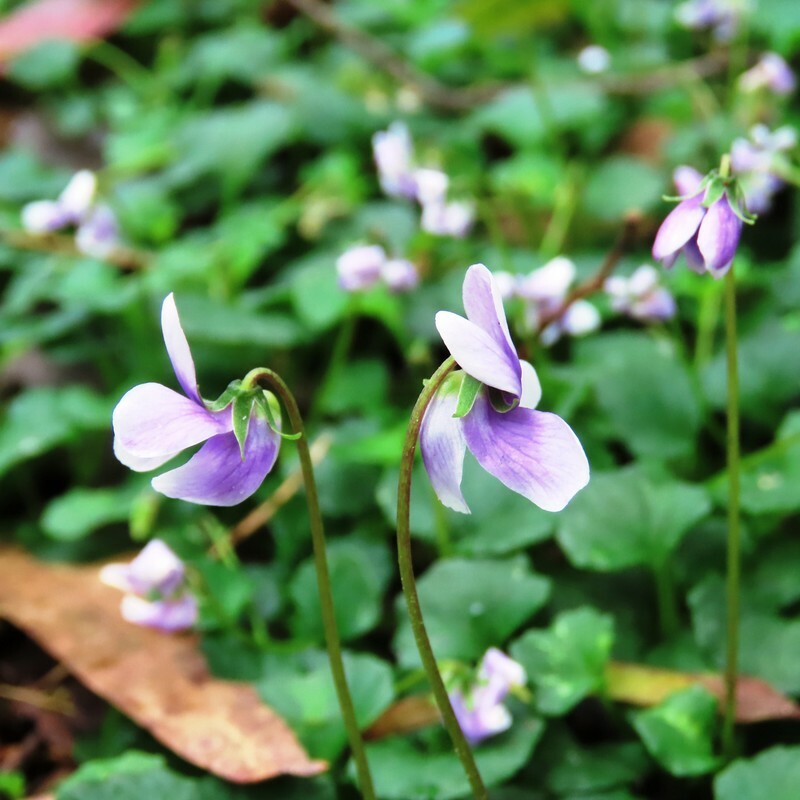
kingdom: Plantae
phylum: Tracheophyta
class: Magnoliopsida
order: Malpighiales
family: Violaceae
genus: Viola
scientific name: Viola hederacea
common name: Australian violet
